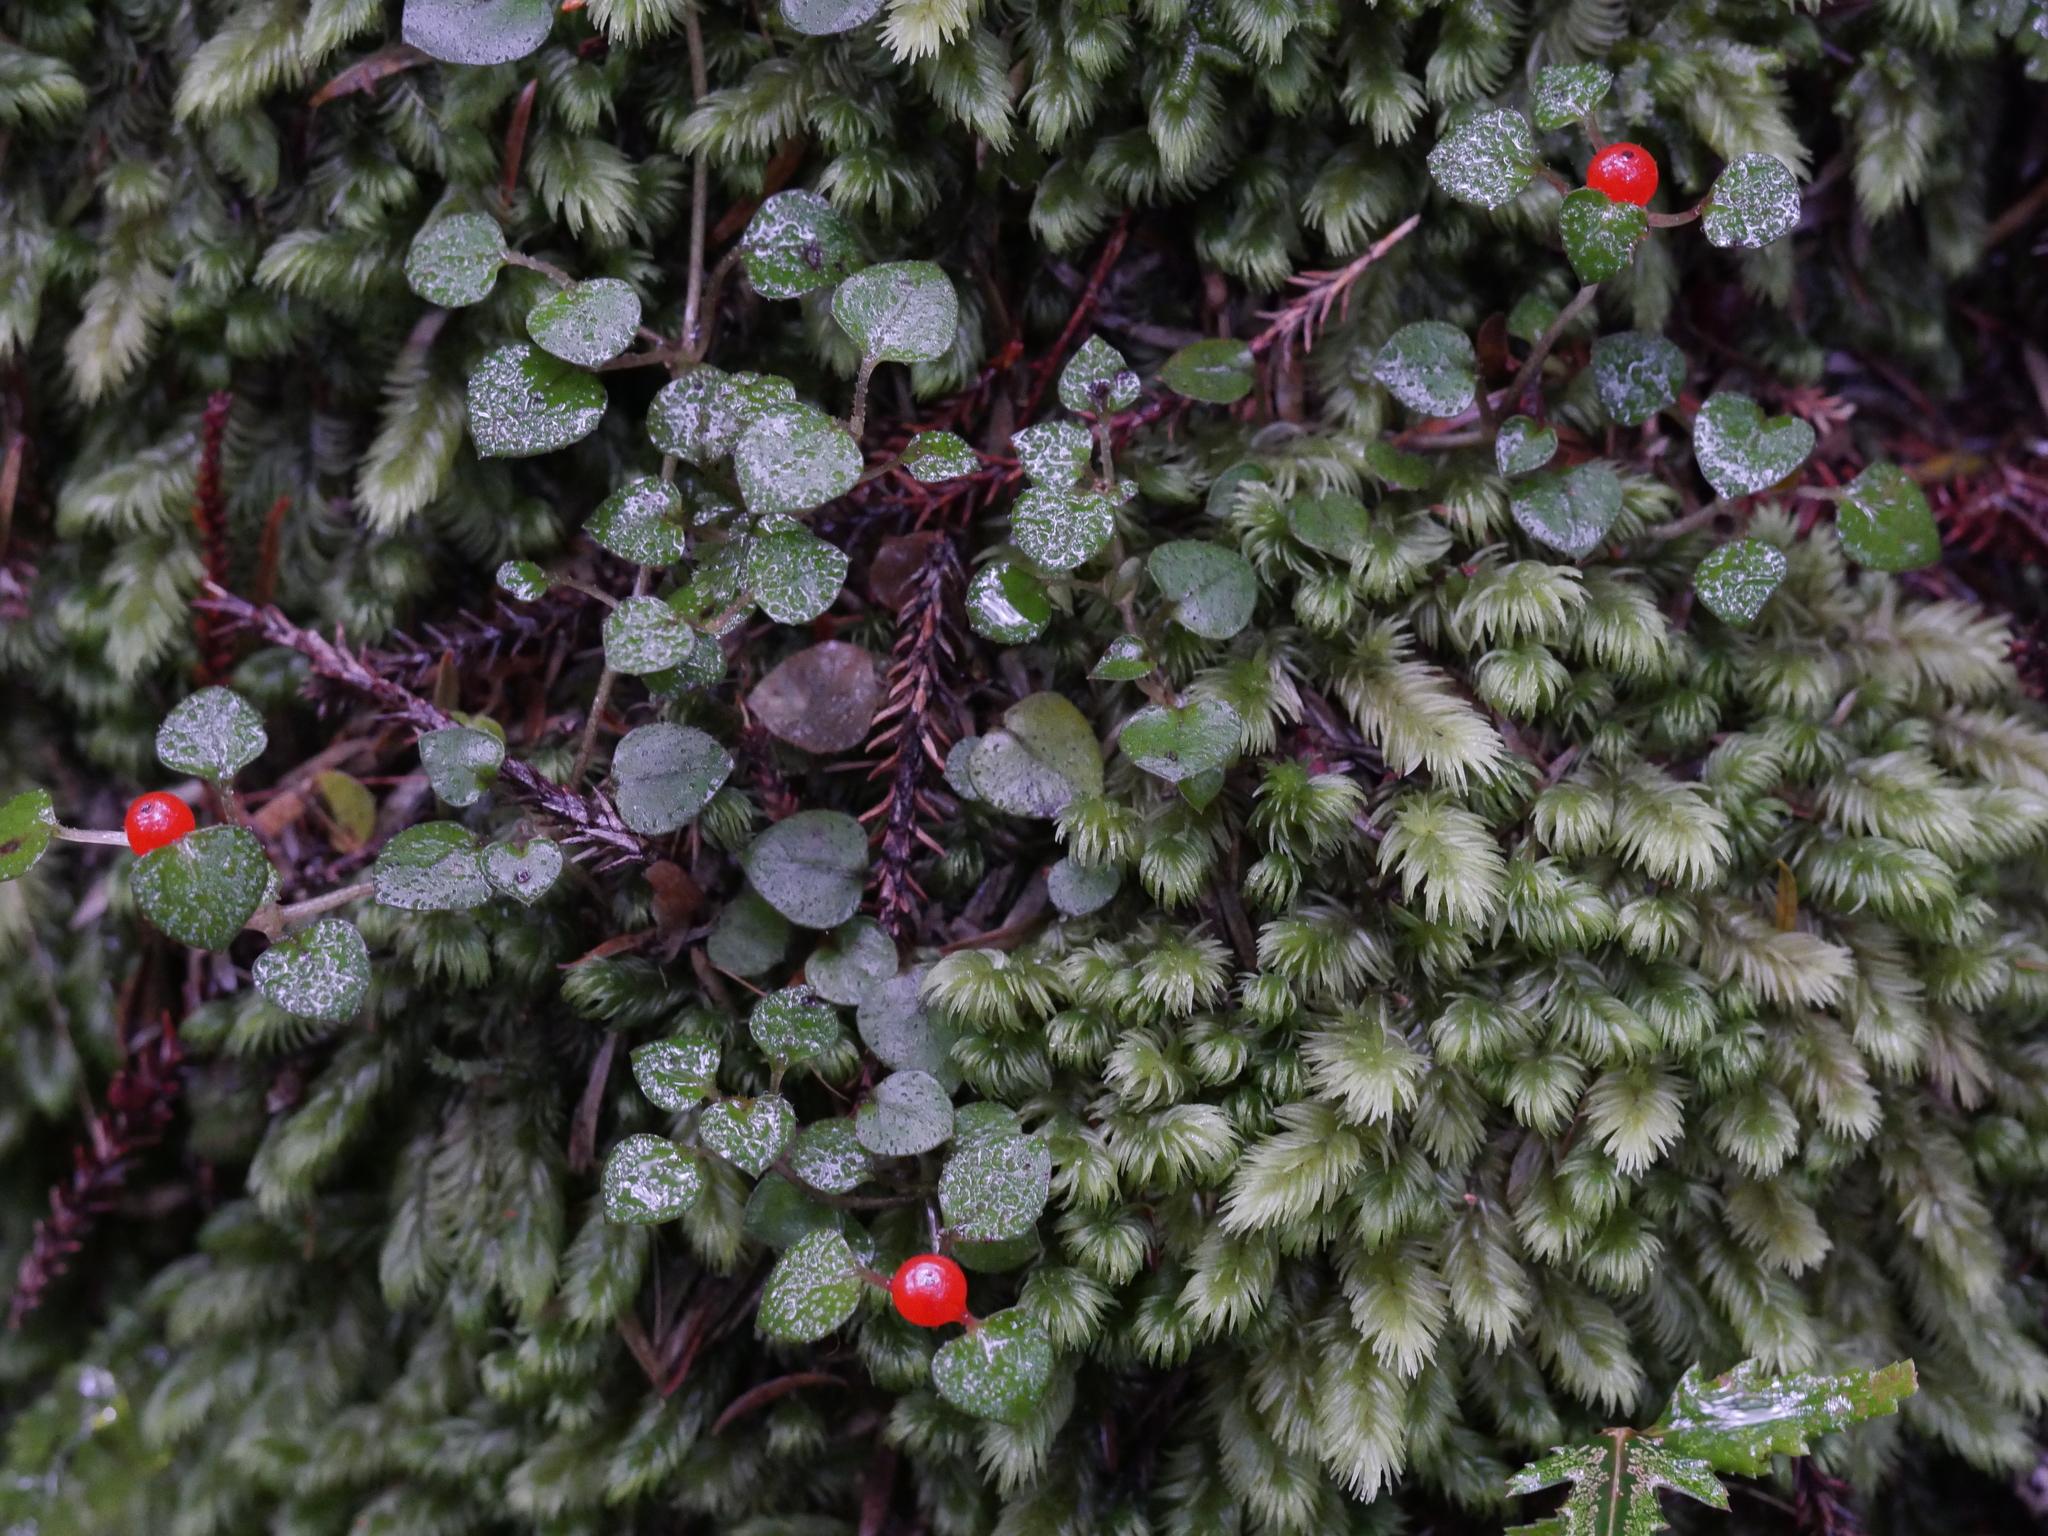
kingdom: Plantae
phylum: Tracheophyta
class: Magnoliopsida
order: Gentianales
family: Rubiaceae
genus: Nertera
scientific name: Nertera dichondrifolia
